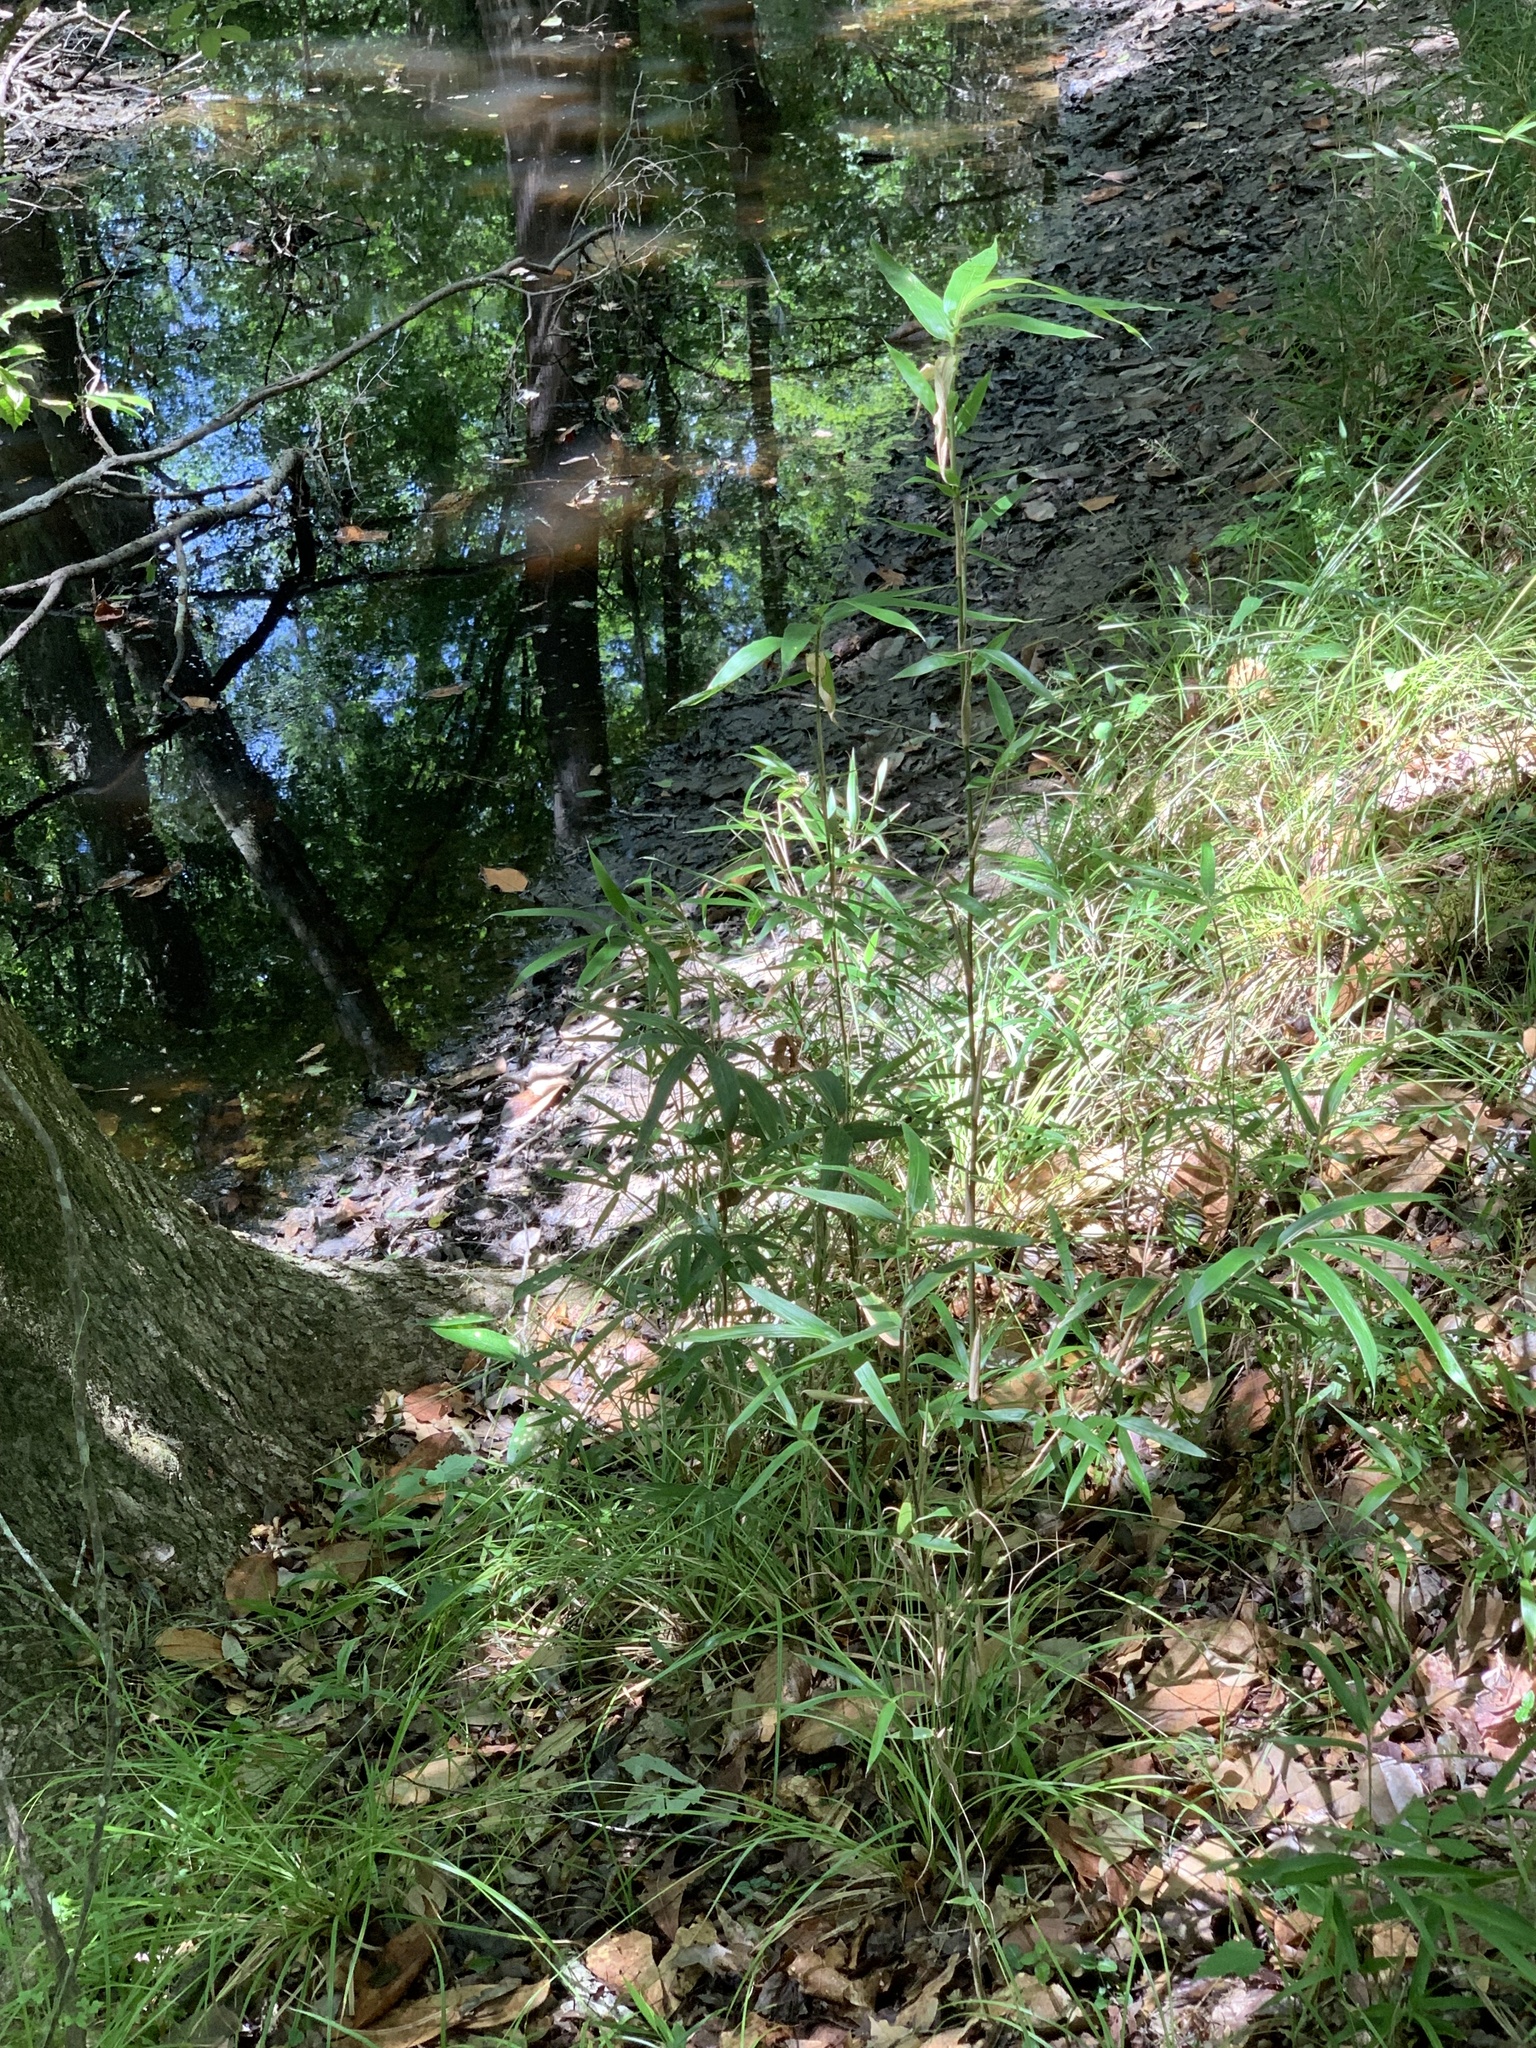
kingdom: Plantae
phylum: Tracheophyta
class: Liliopsida
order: Poales
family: Poaceae
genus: Arundinaria
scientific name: Arundinaria gigantea
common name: Giant cane
